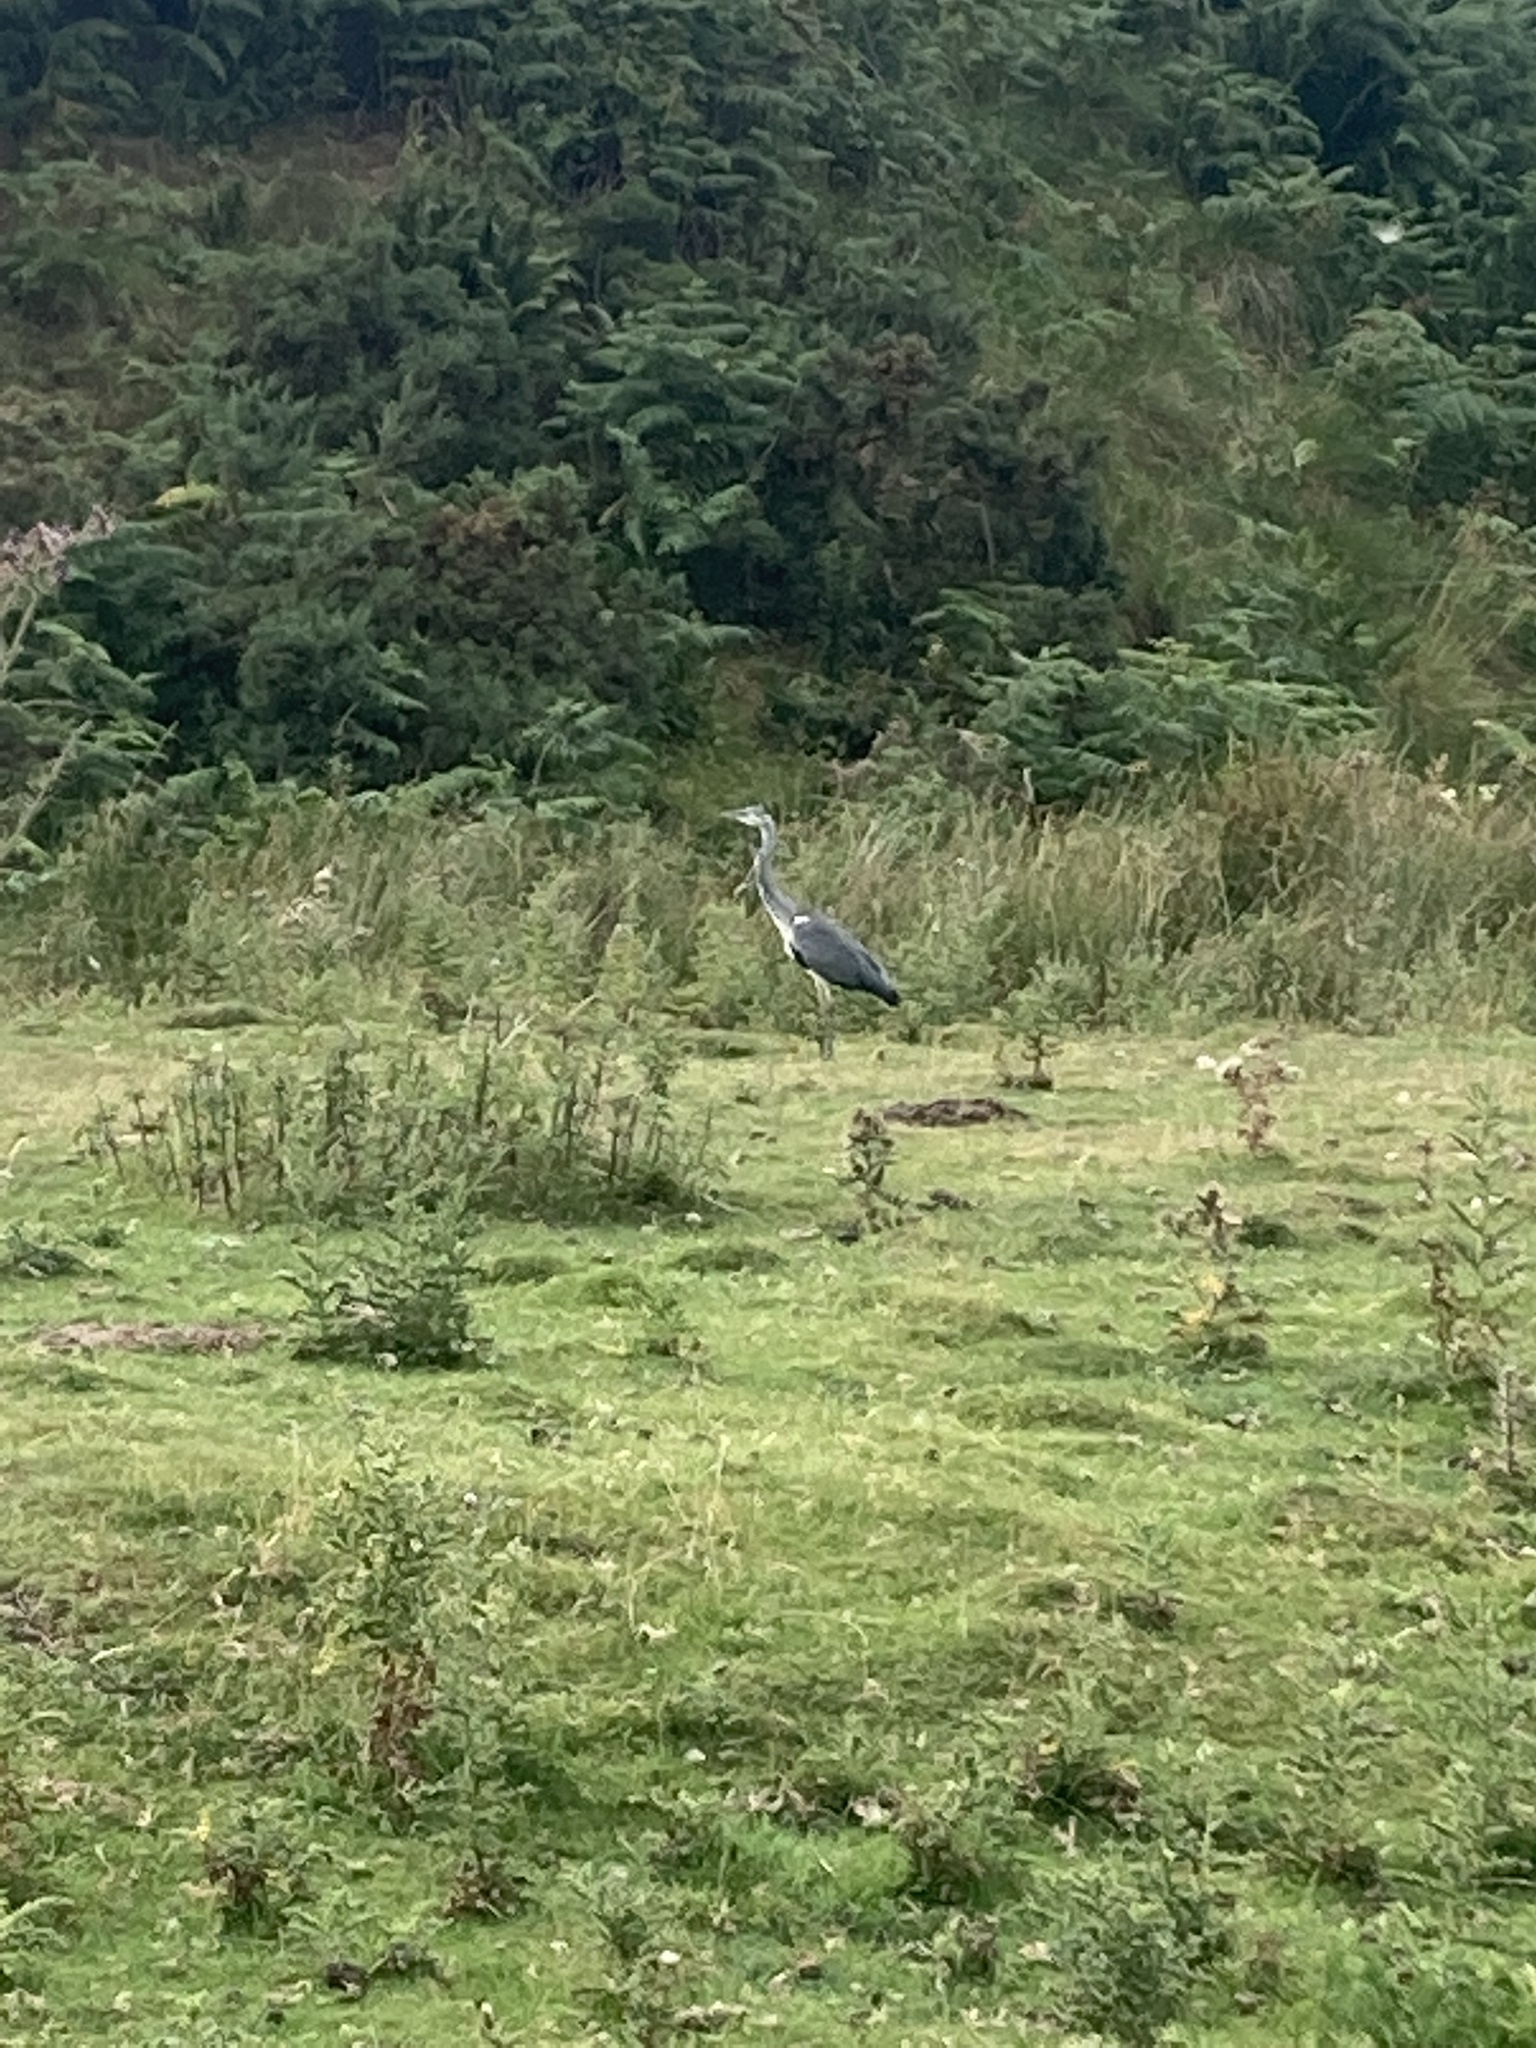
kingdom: Animalia
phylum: Chordata
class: Aves
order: Pelecaniformes
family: Ardeidae
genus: Ardea
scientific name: Ardea cinerea
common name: Grey heron
